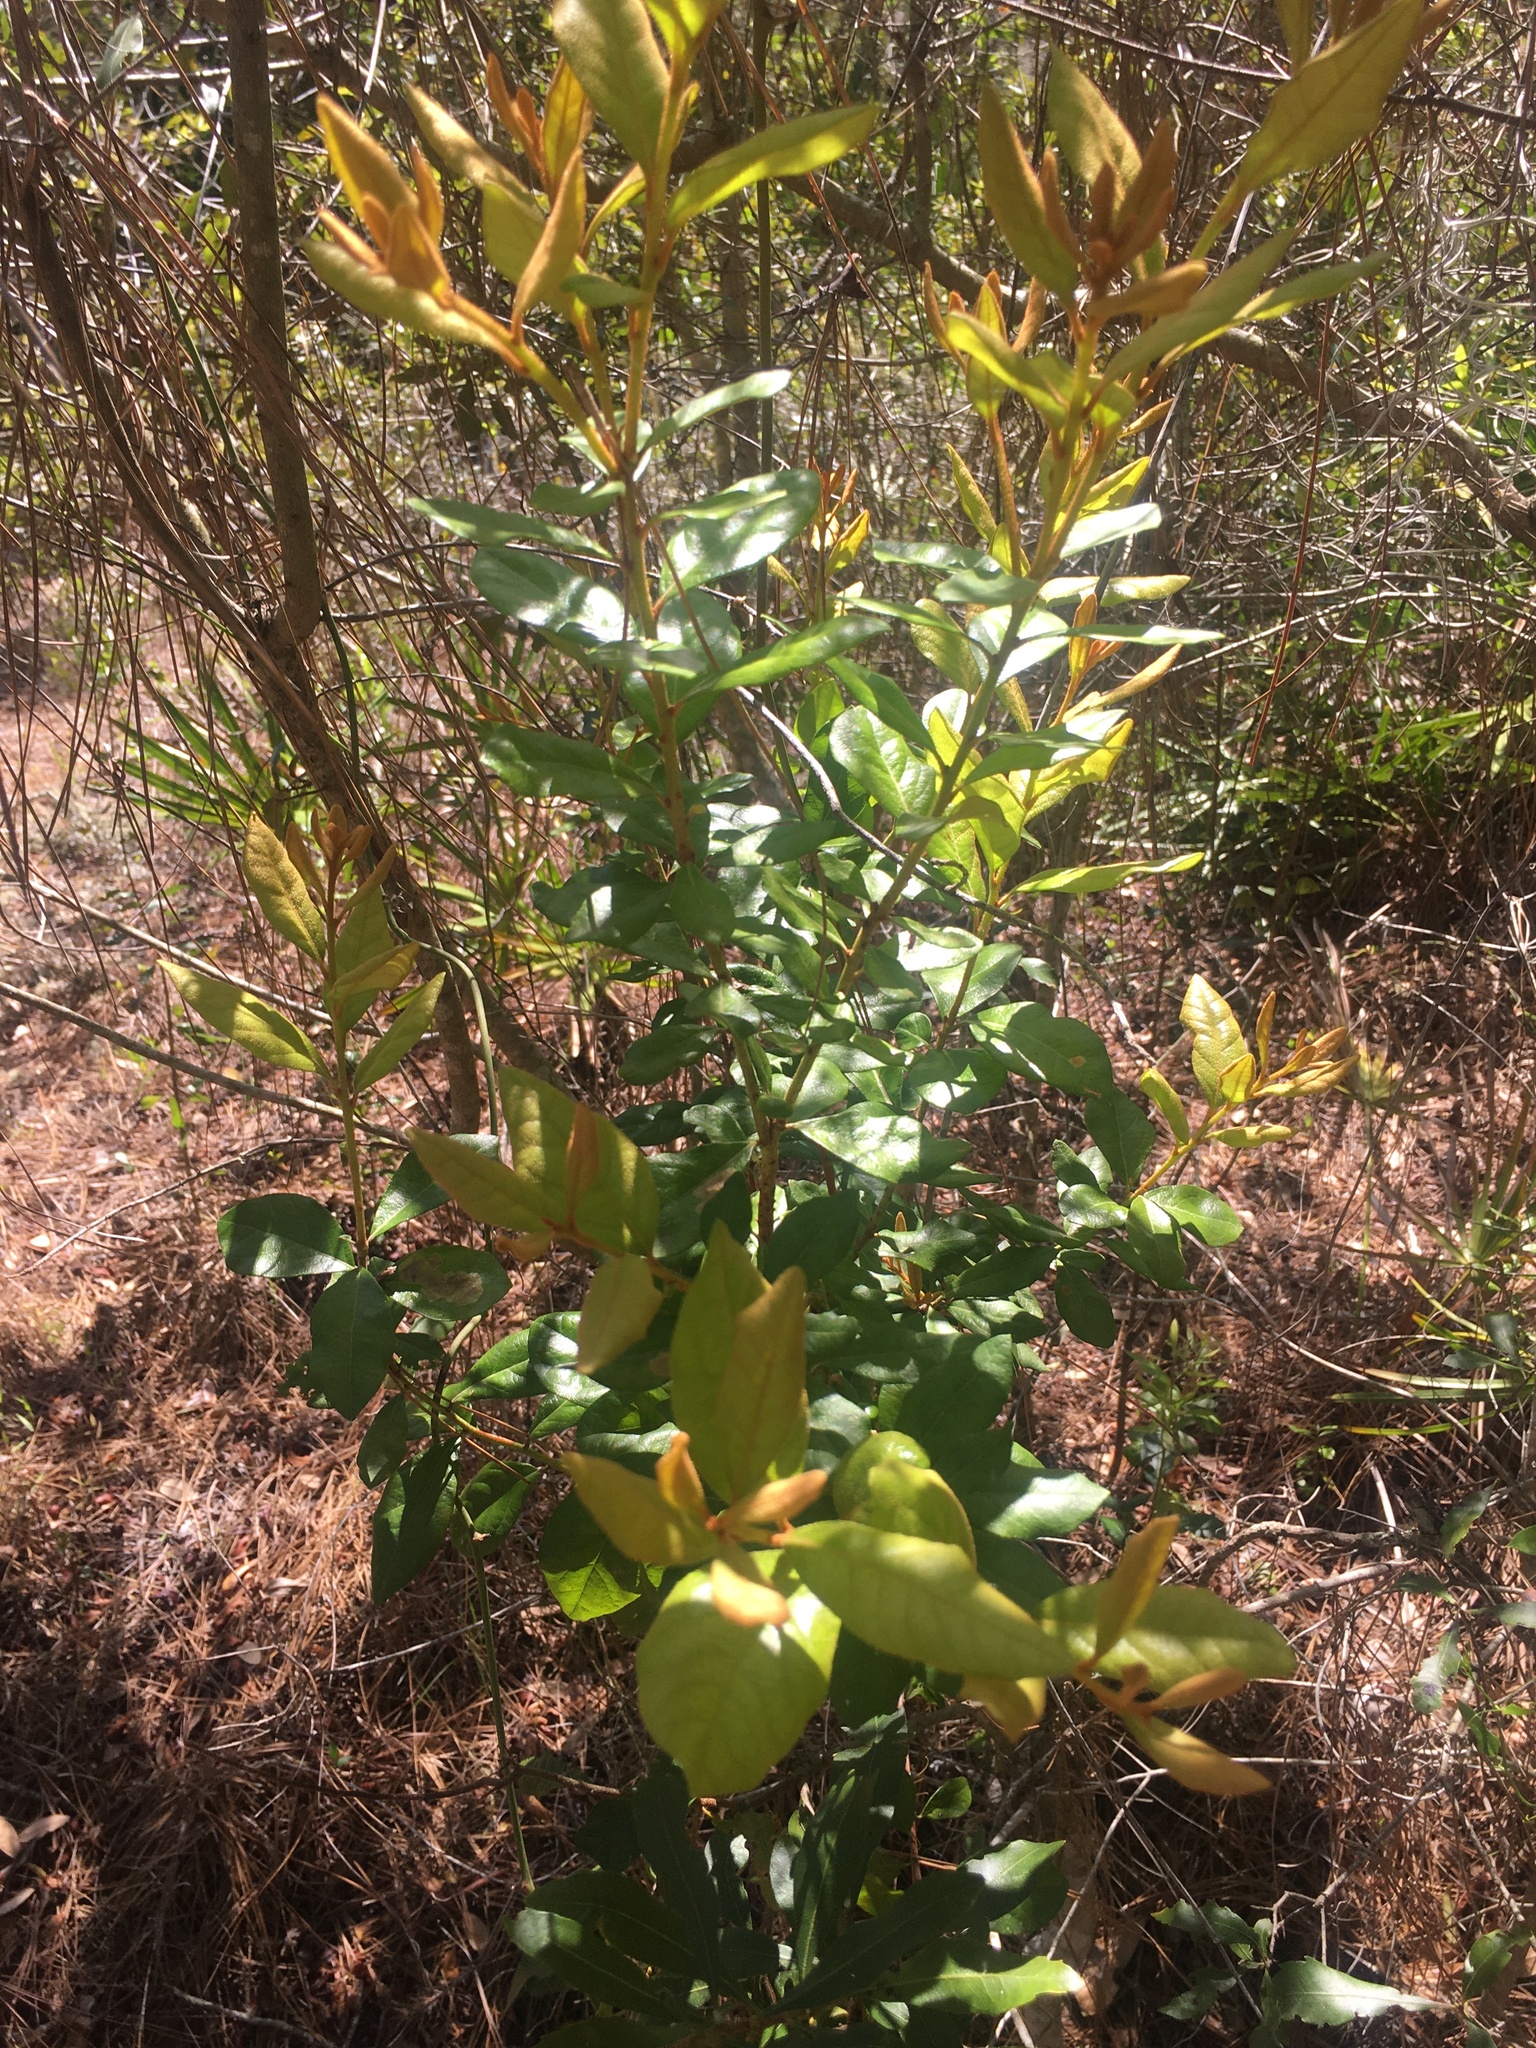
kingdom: Plantae
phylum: Tracheophyta
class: Magnoliopsida
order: Ericales
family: Ericaceae
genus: Lyonia
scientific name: Lyonia fruticosa
